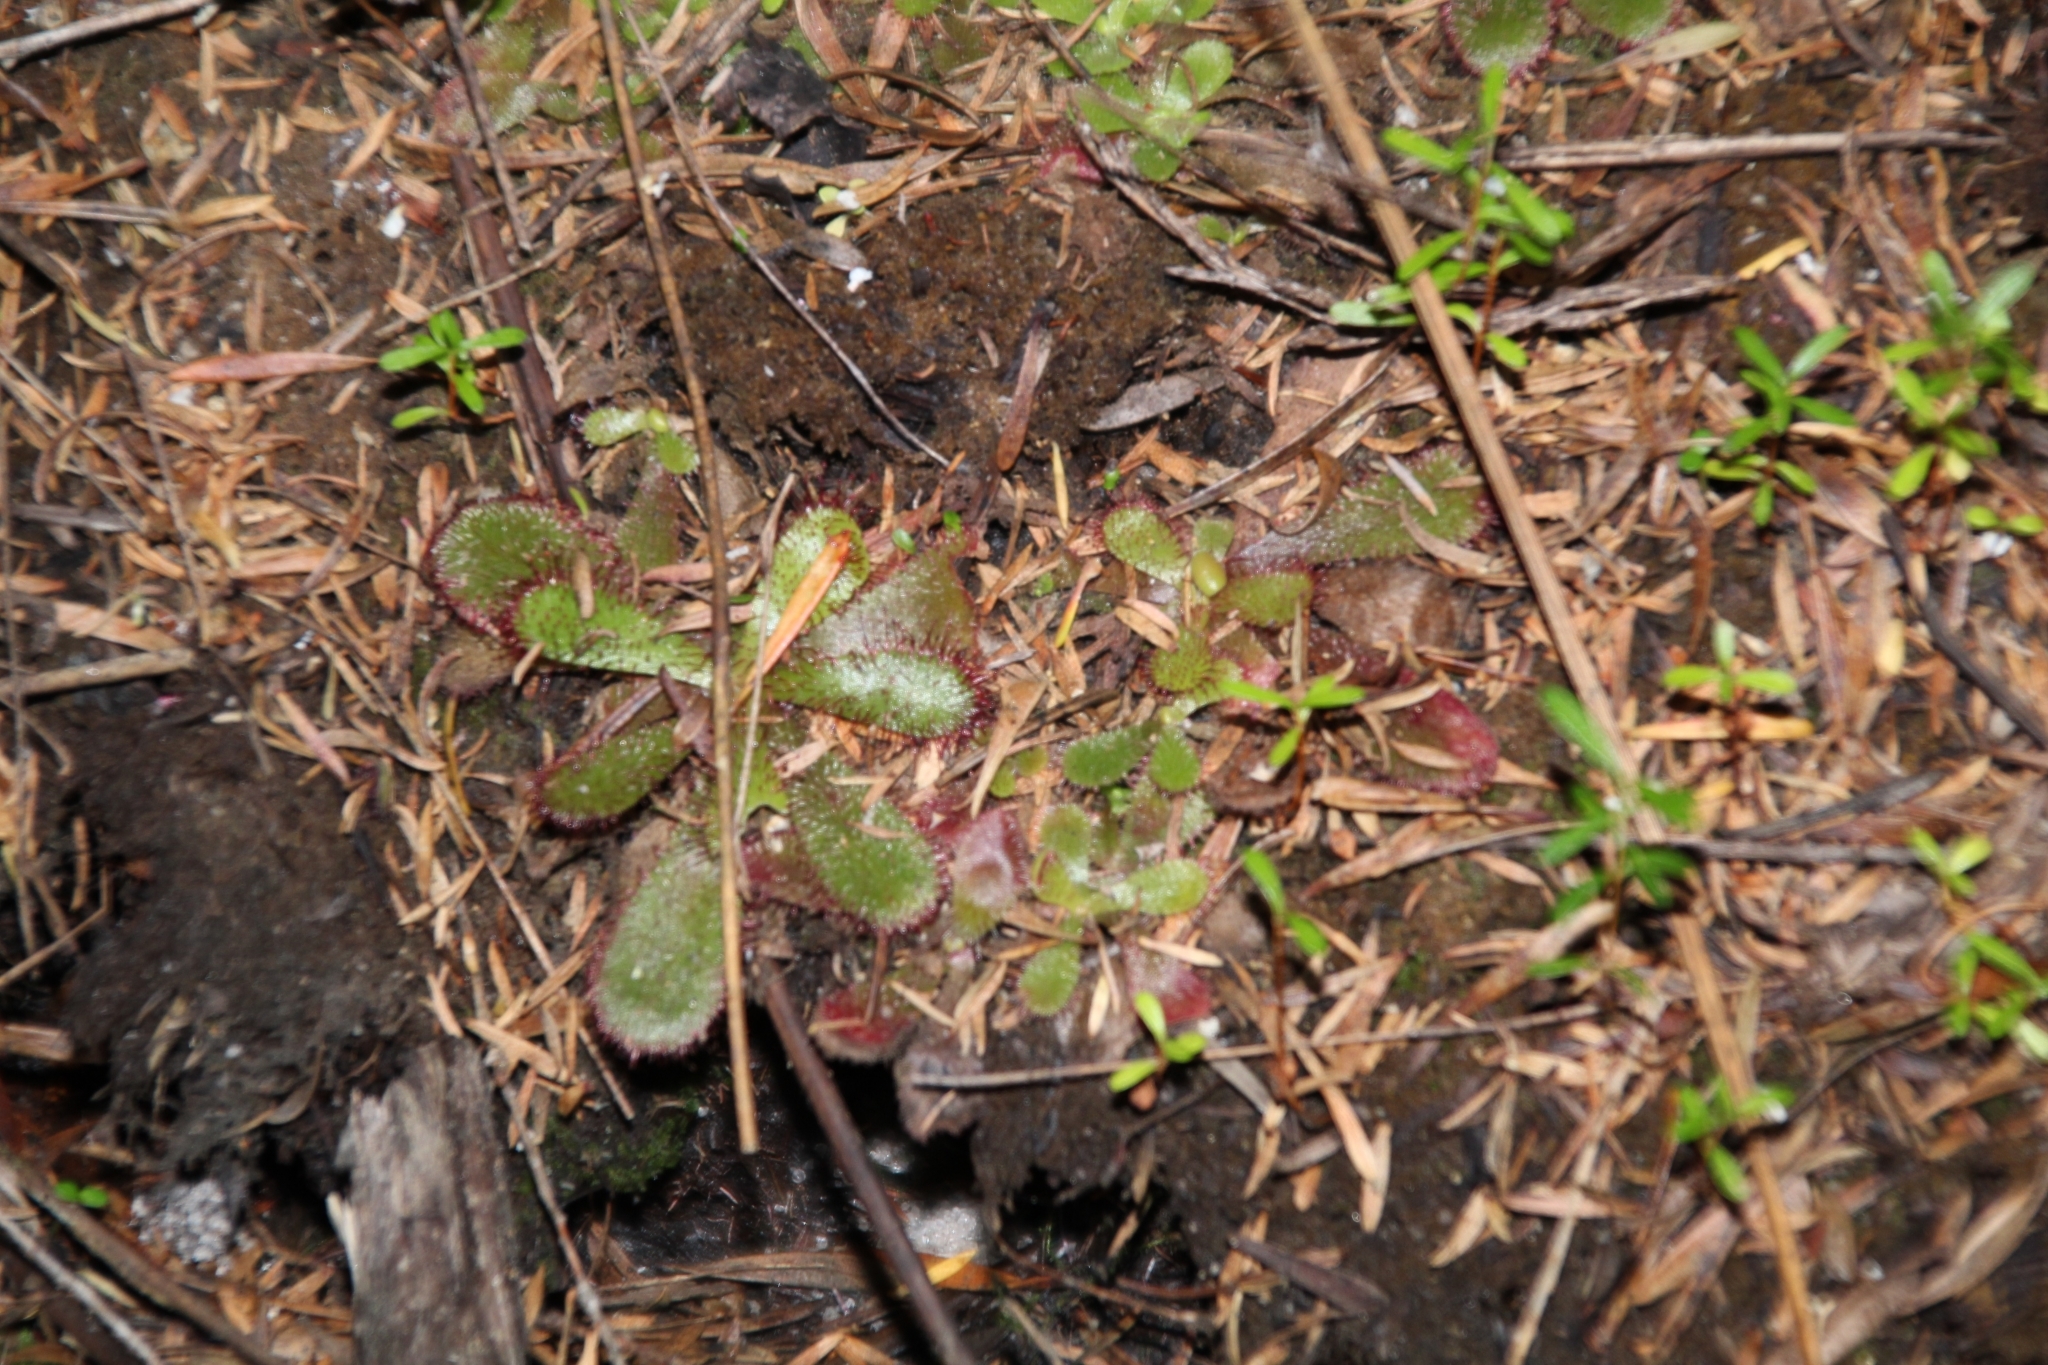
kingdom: Plantae
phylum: Tracheophyta
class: Magnoliopsida
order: Caryophyllales
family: Droseraceae
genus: Drosera
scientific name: Drosera hamiltonii
